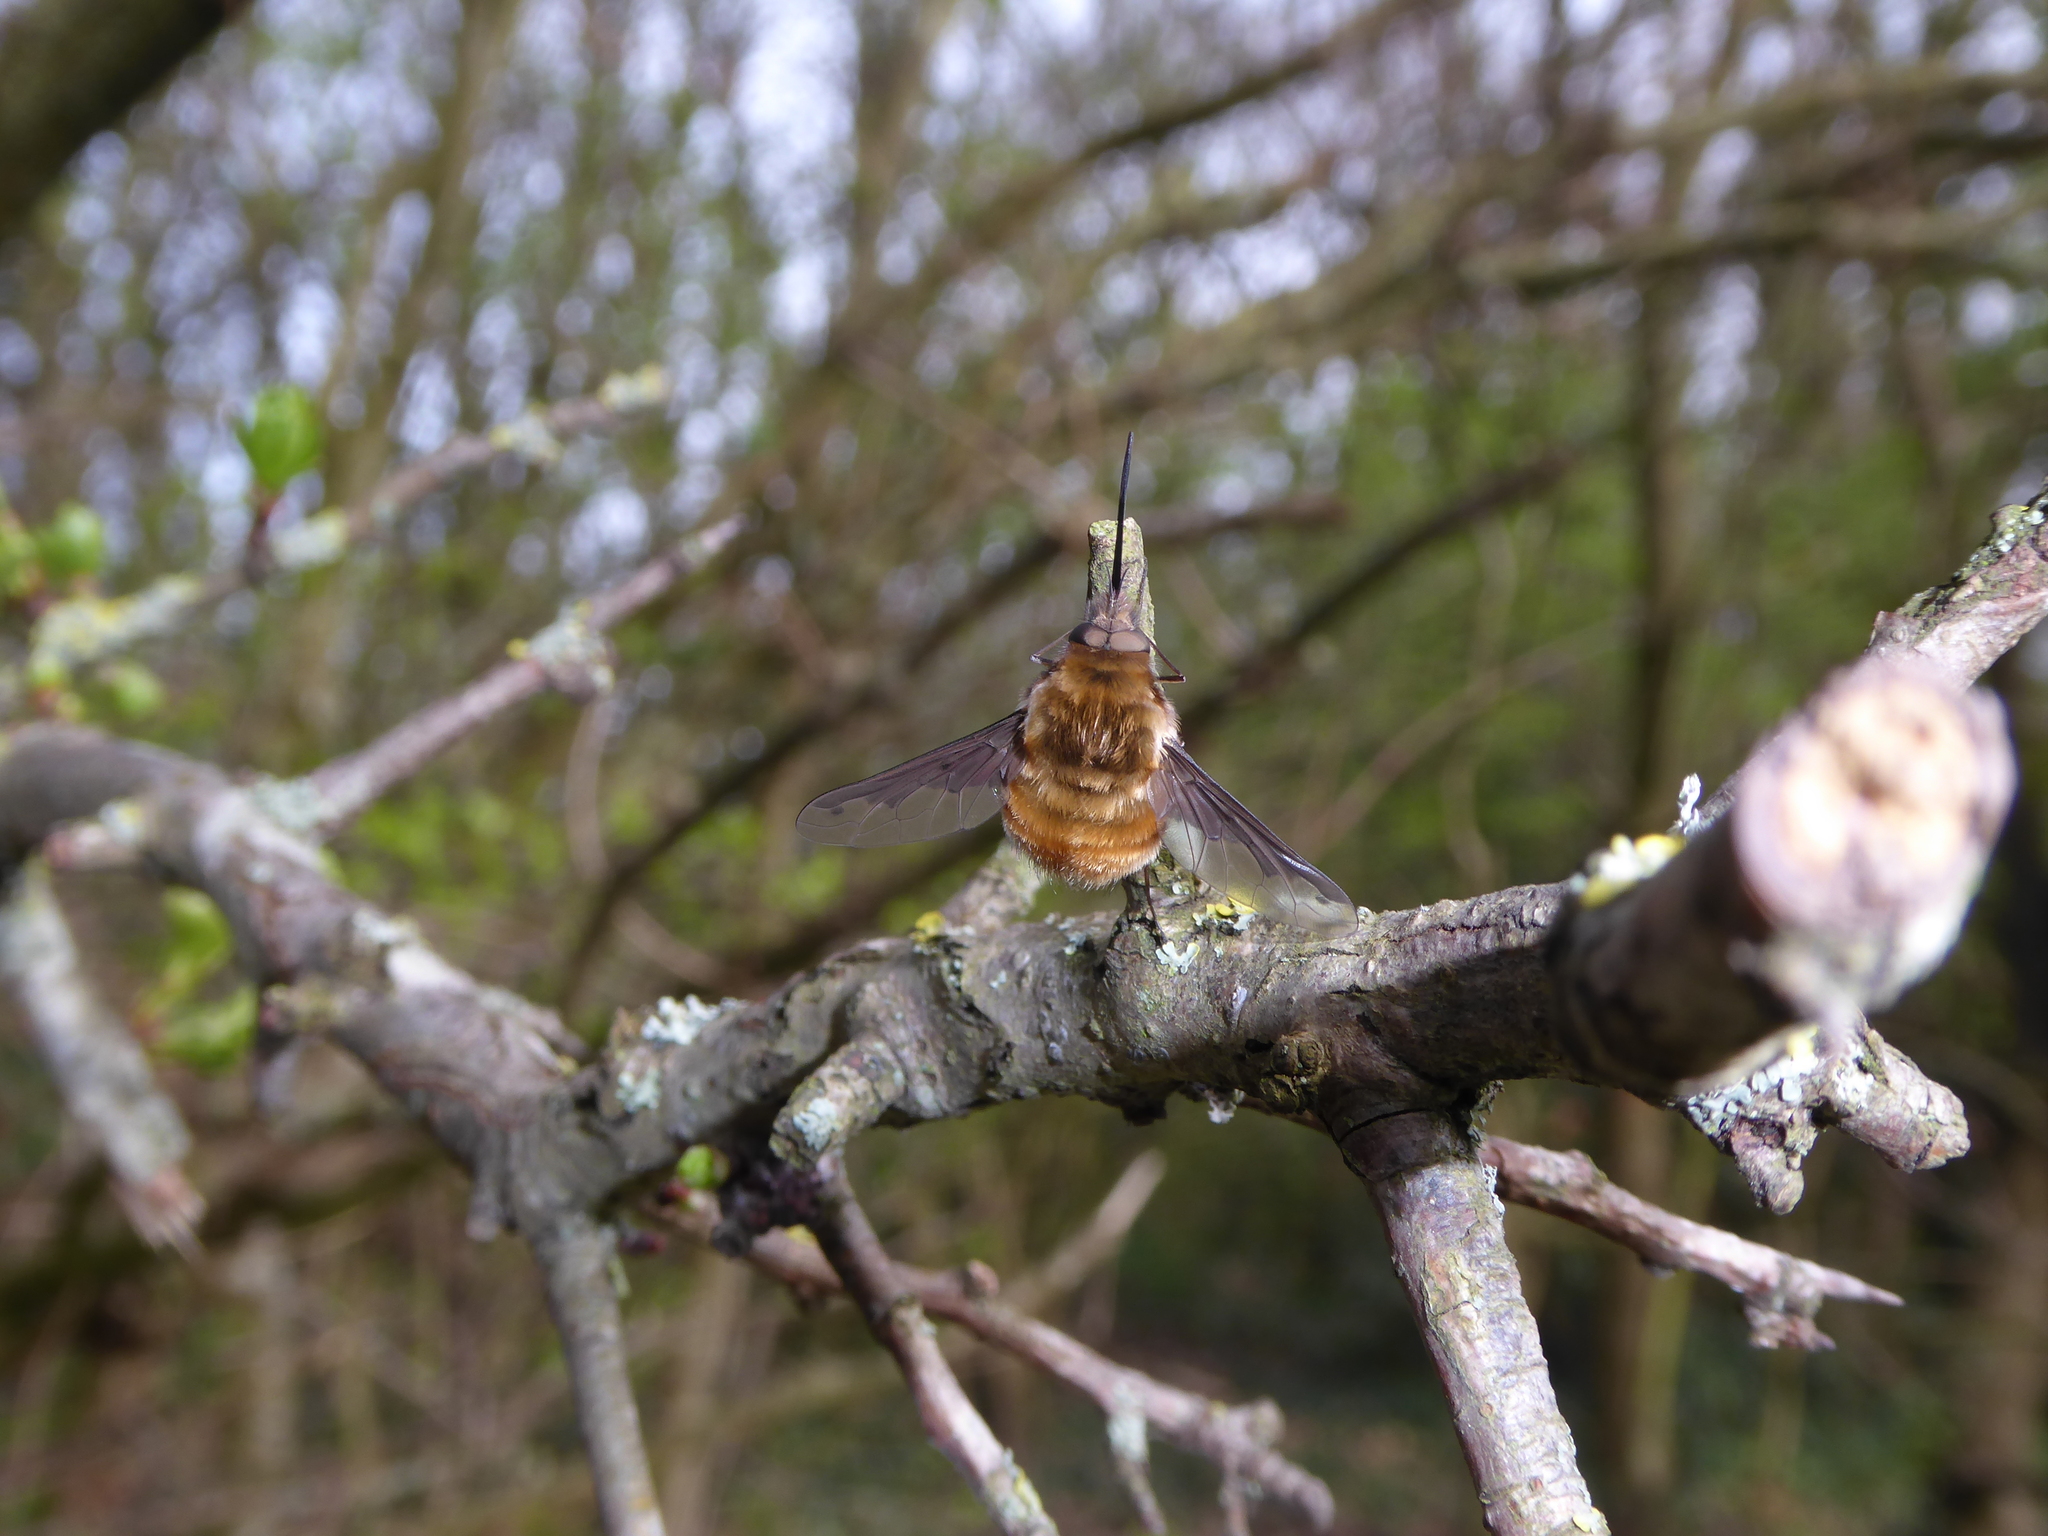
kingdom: Animalia
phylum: Arthropoda
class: Insecta
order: Diptera
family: Bombyliidae
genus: Bombylius
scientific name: Bombylius major
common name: Bee fly
